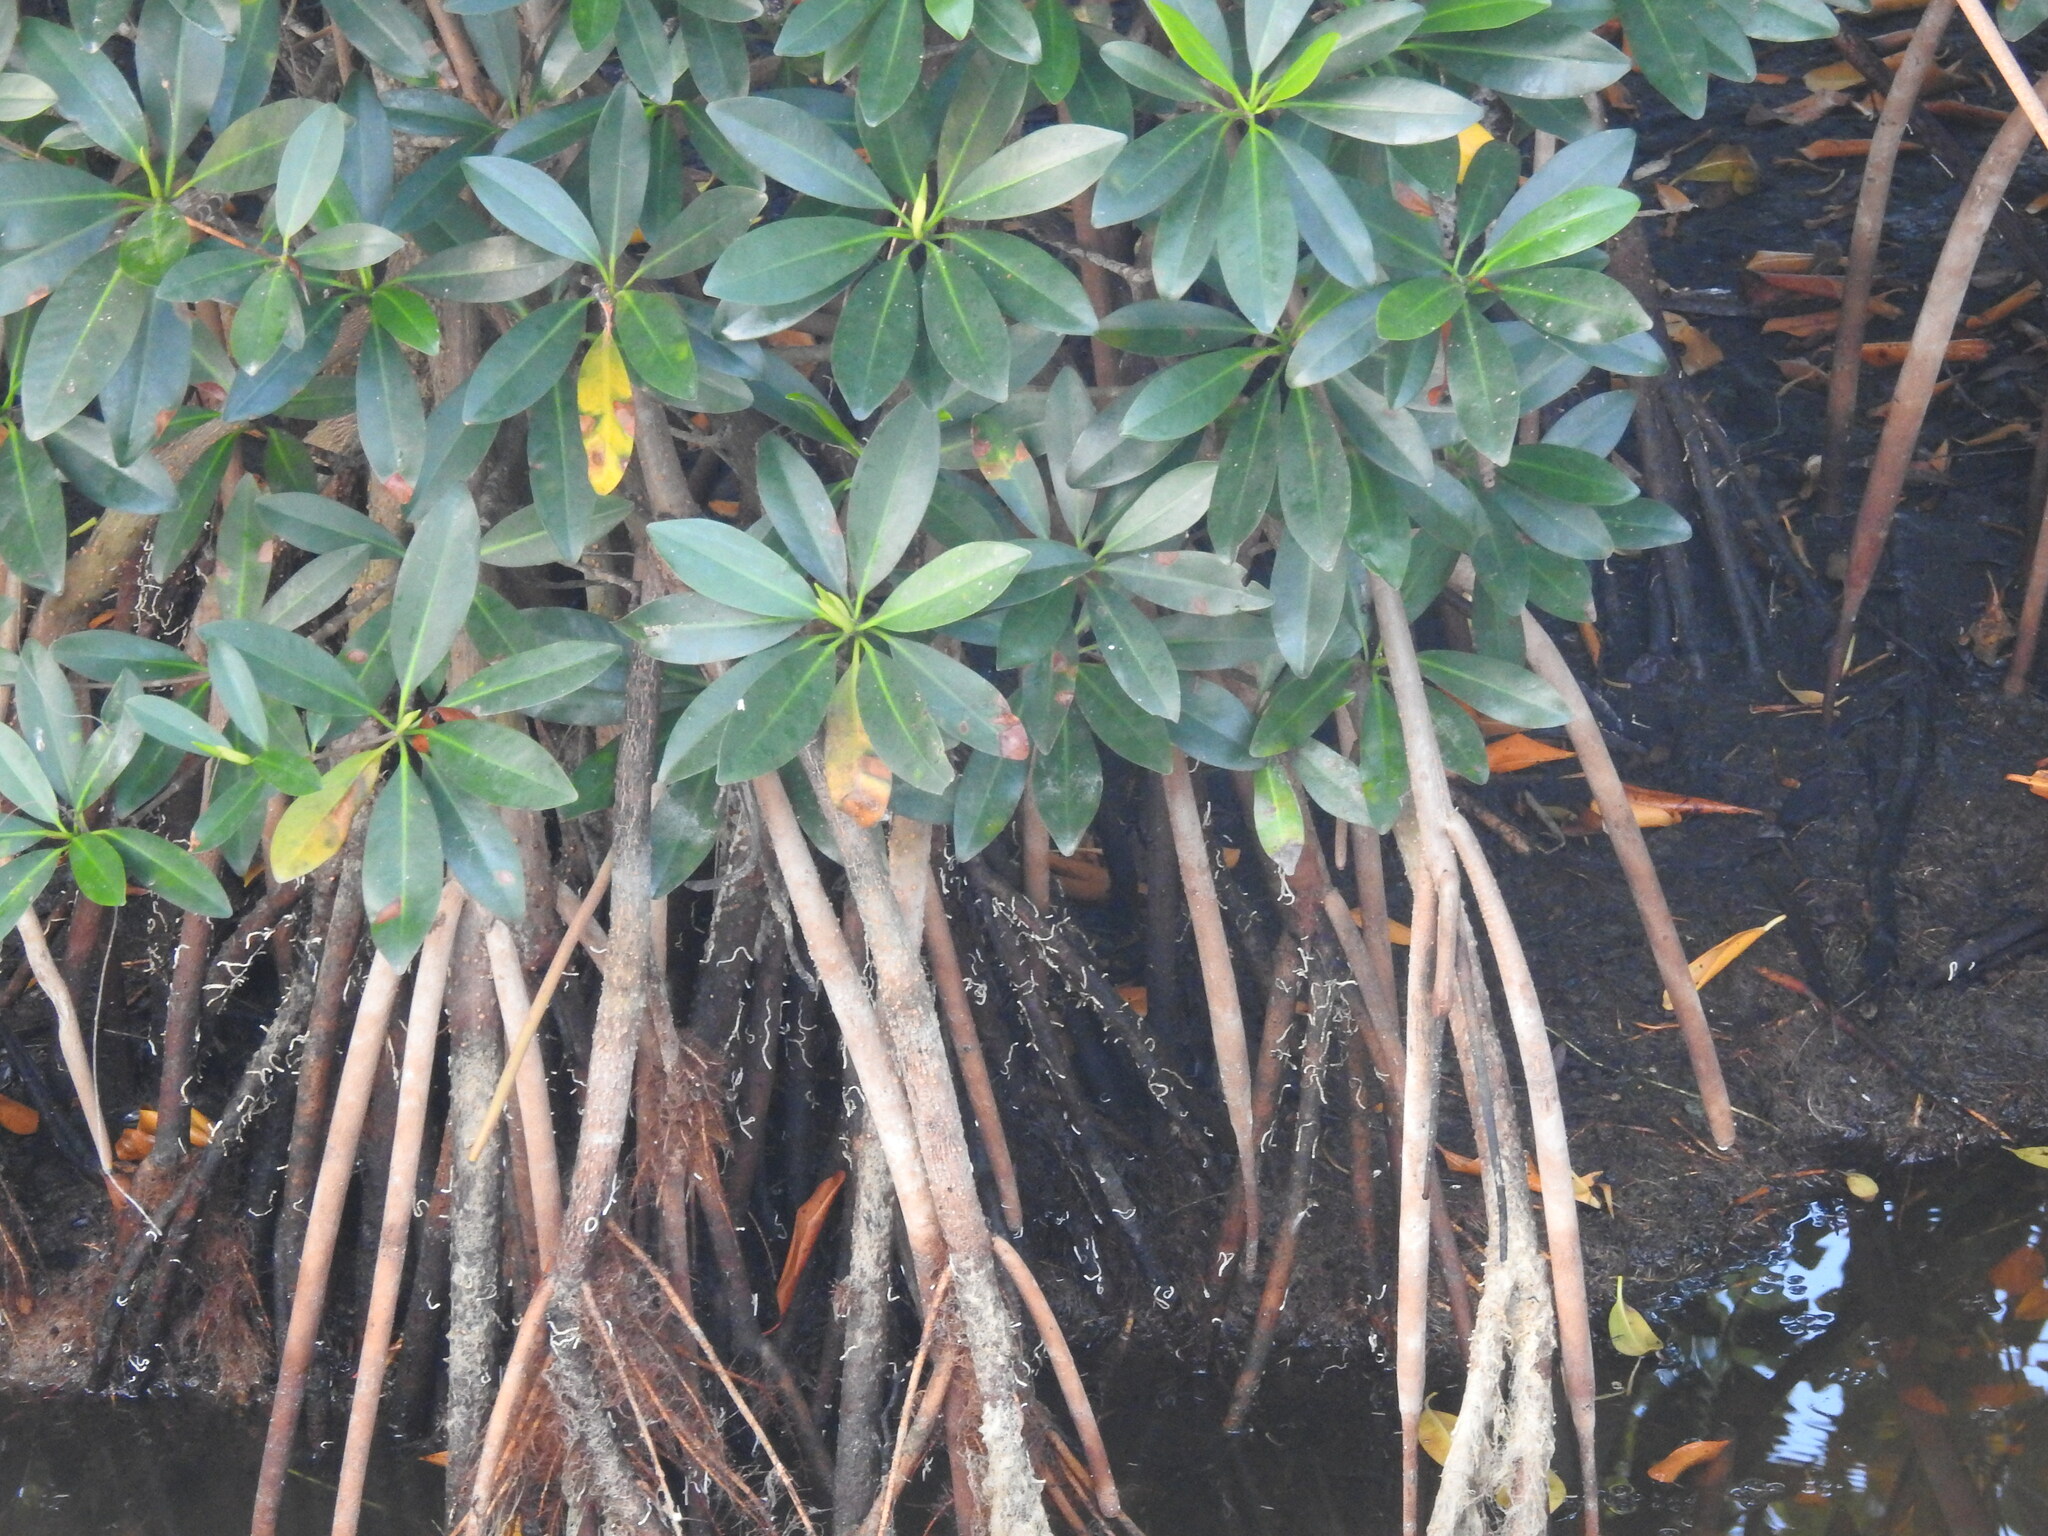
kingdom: Plantae
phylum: Tracheophyta
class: Magnoliopsida
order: Malpighiales
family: Rhizophoraceae
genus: Rhizophora
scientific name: Rhizophora mangle
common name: Red mangrove
